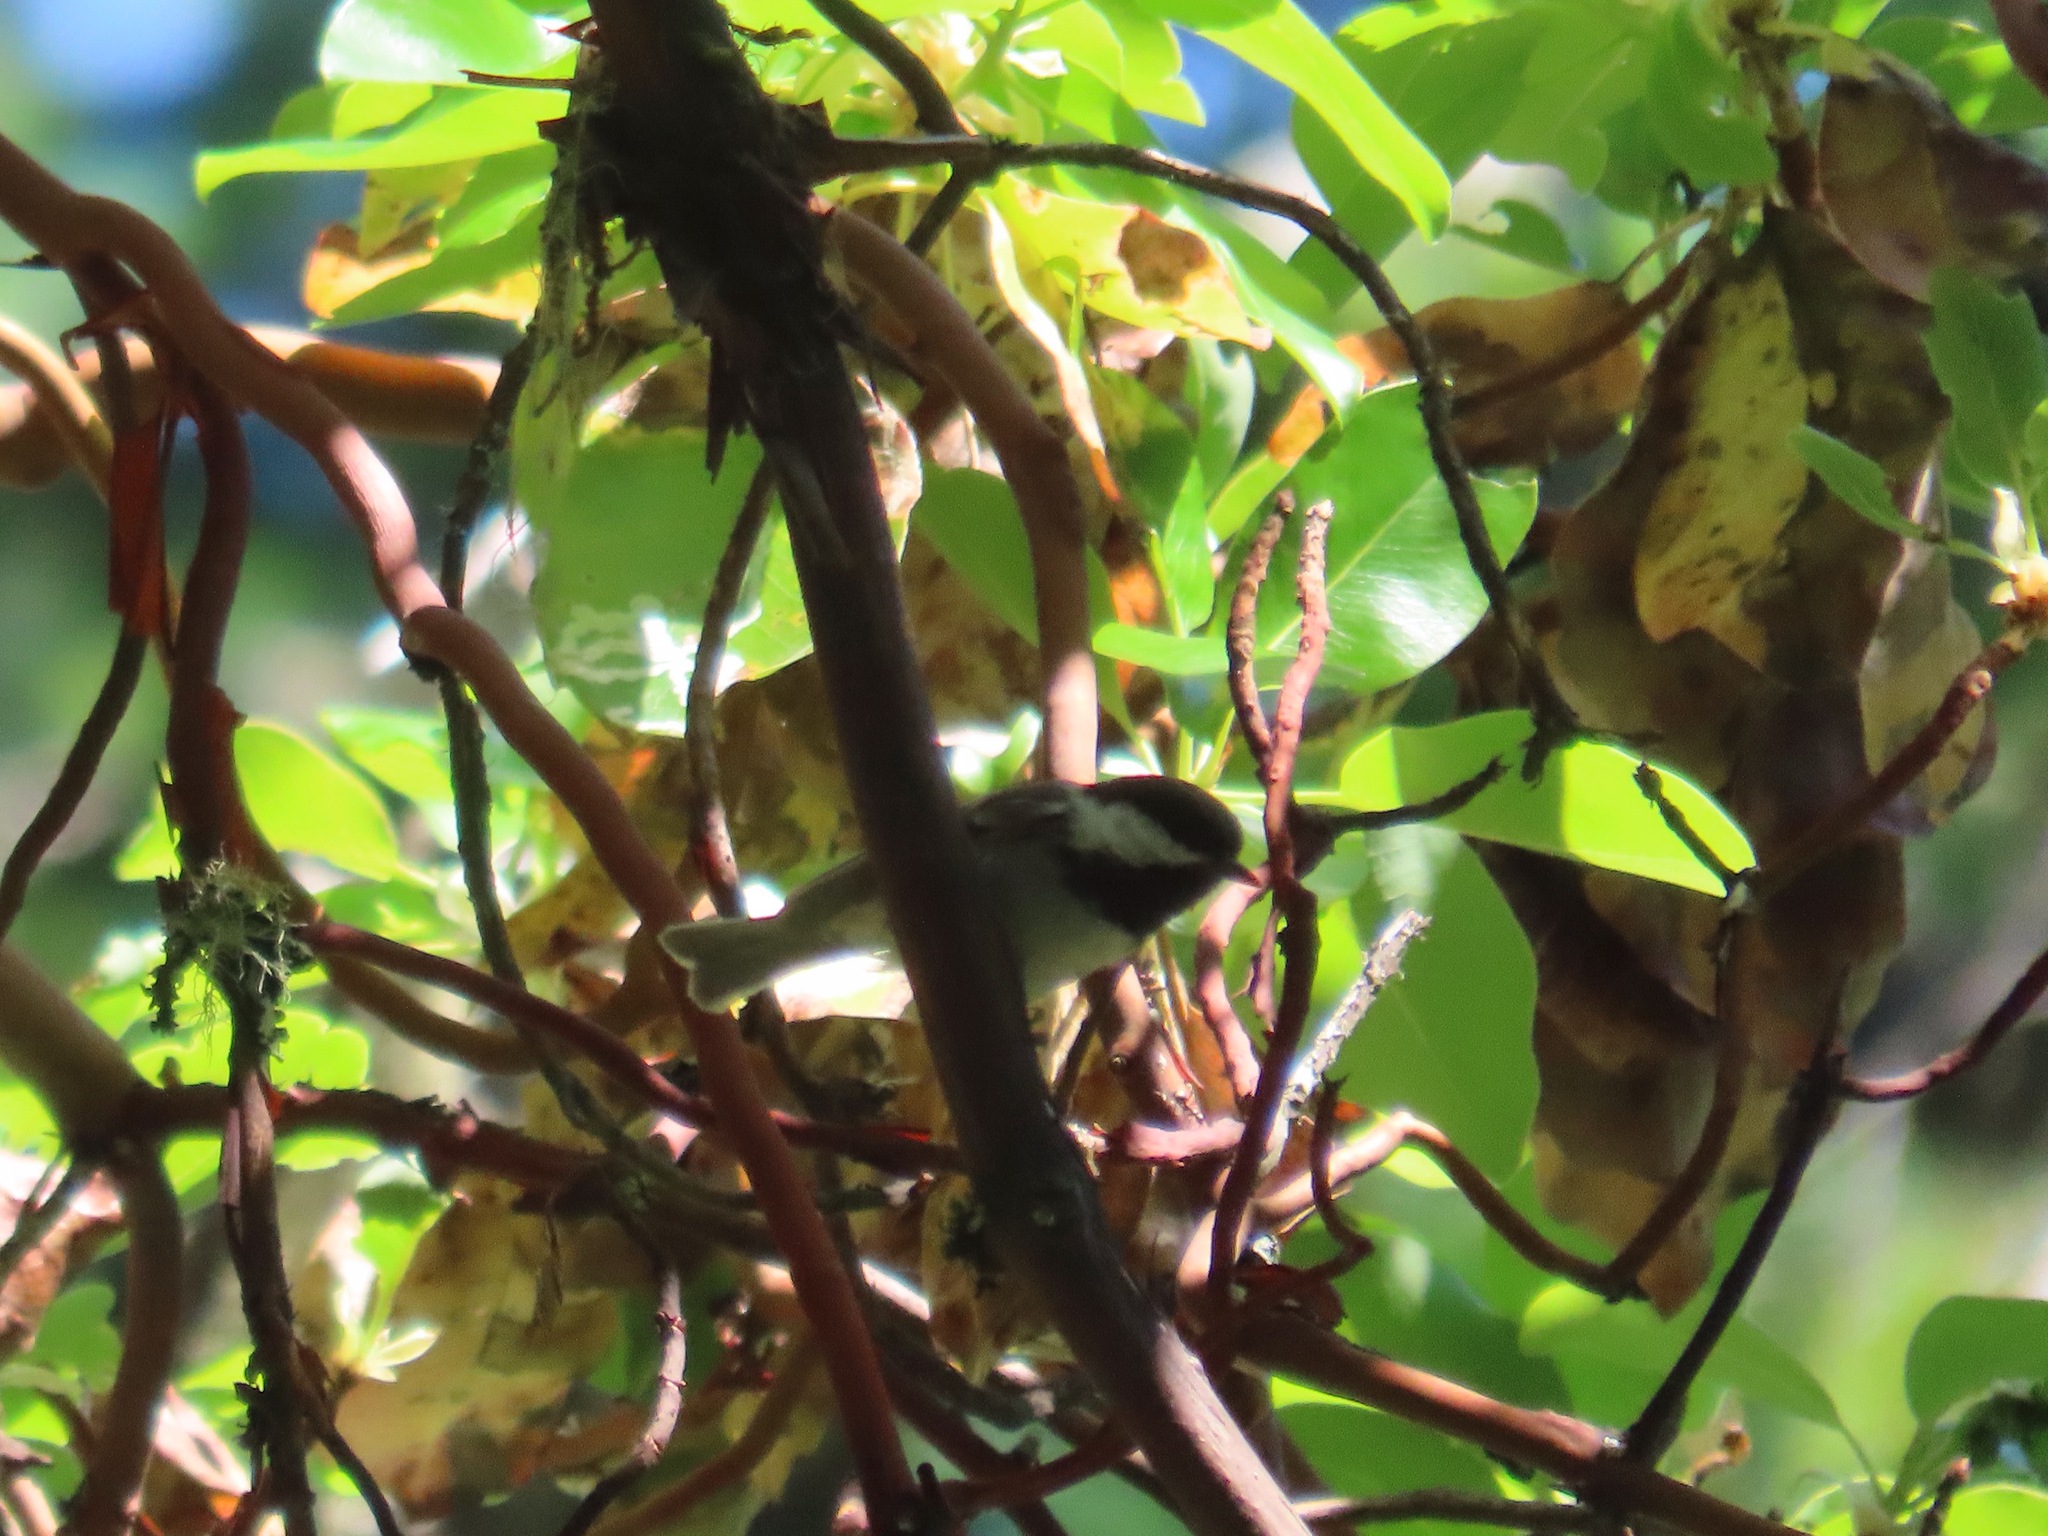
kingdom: Animalia
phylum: Chordata
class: Aves
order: Passeriformes
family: Paridae
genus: Poecile
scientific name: Poecile rufescens
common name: Chestnut-backed chickadee
